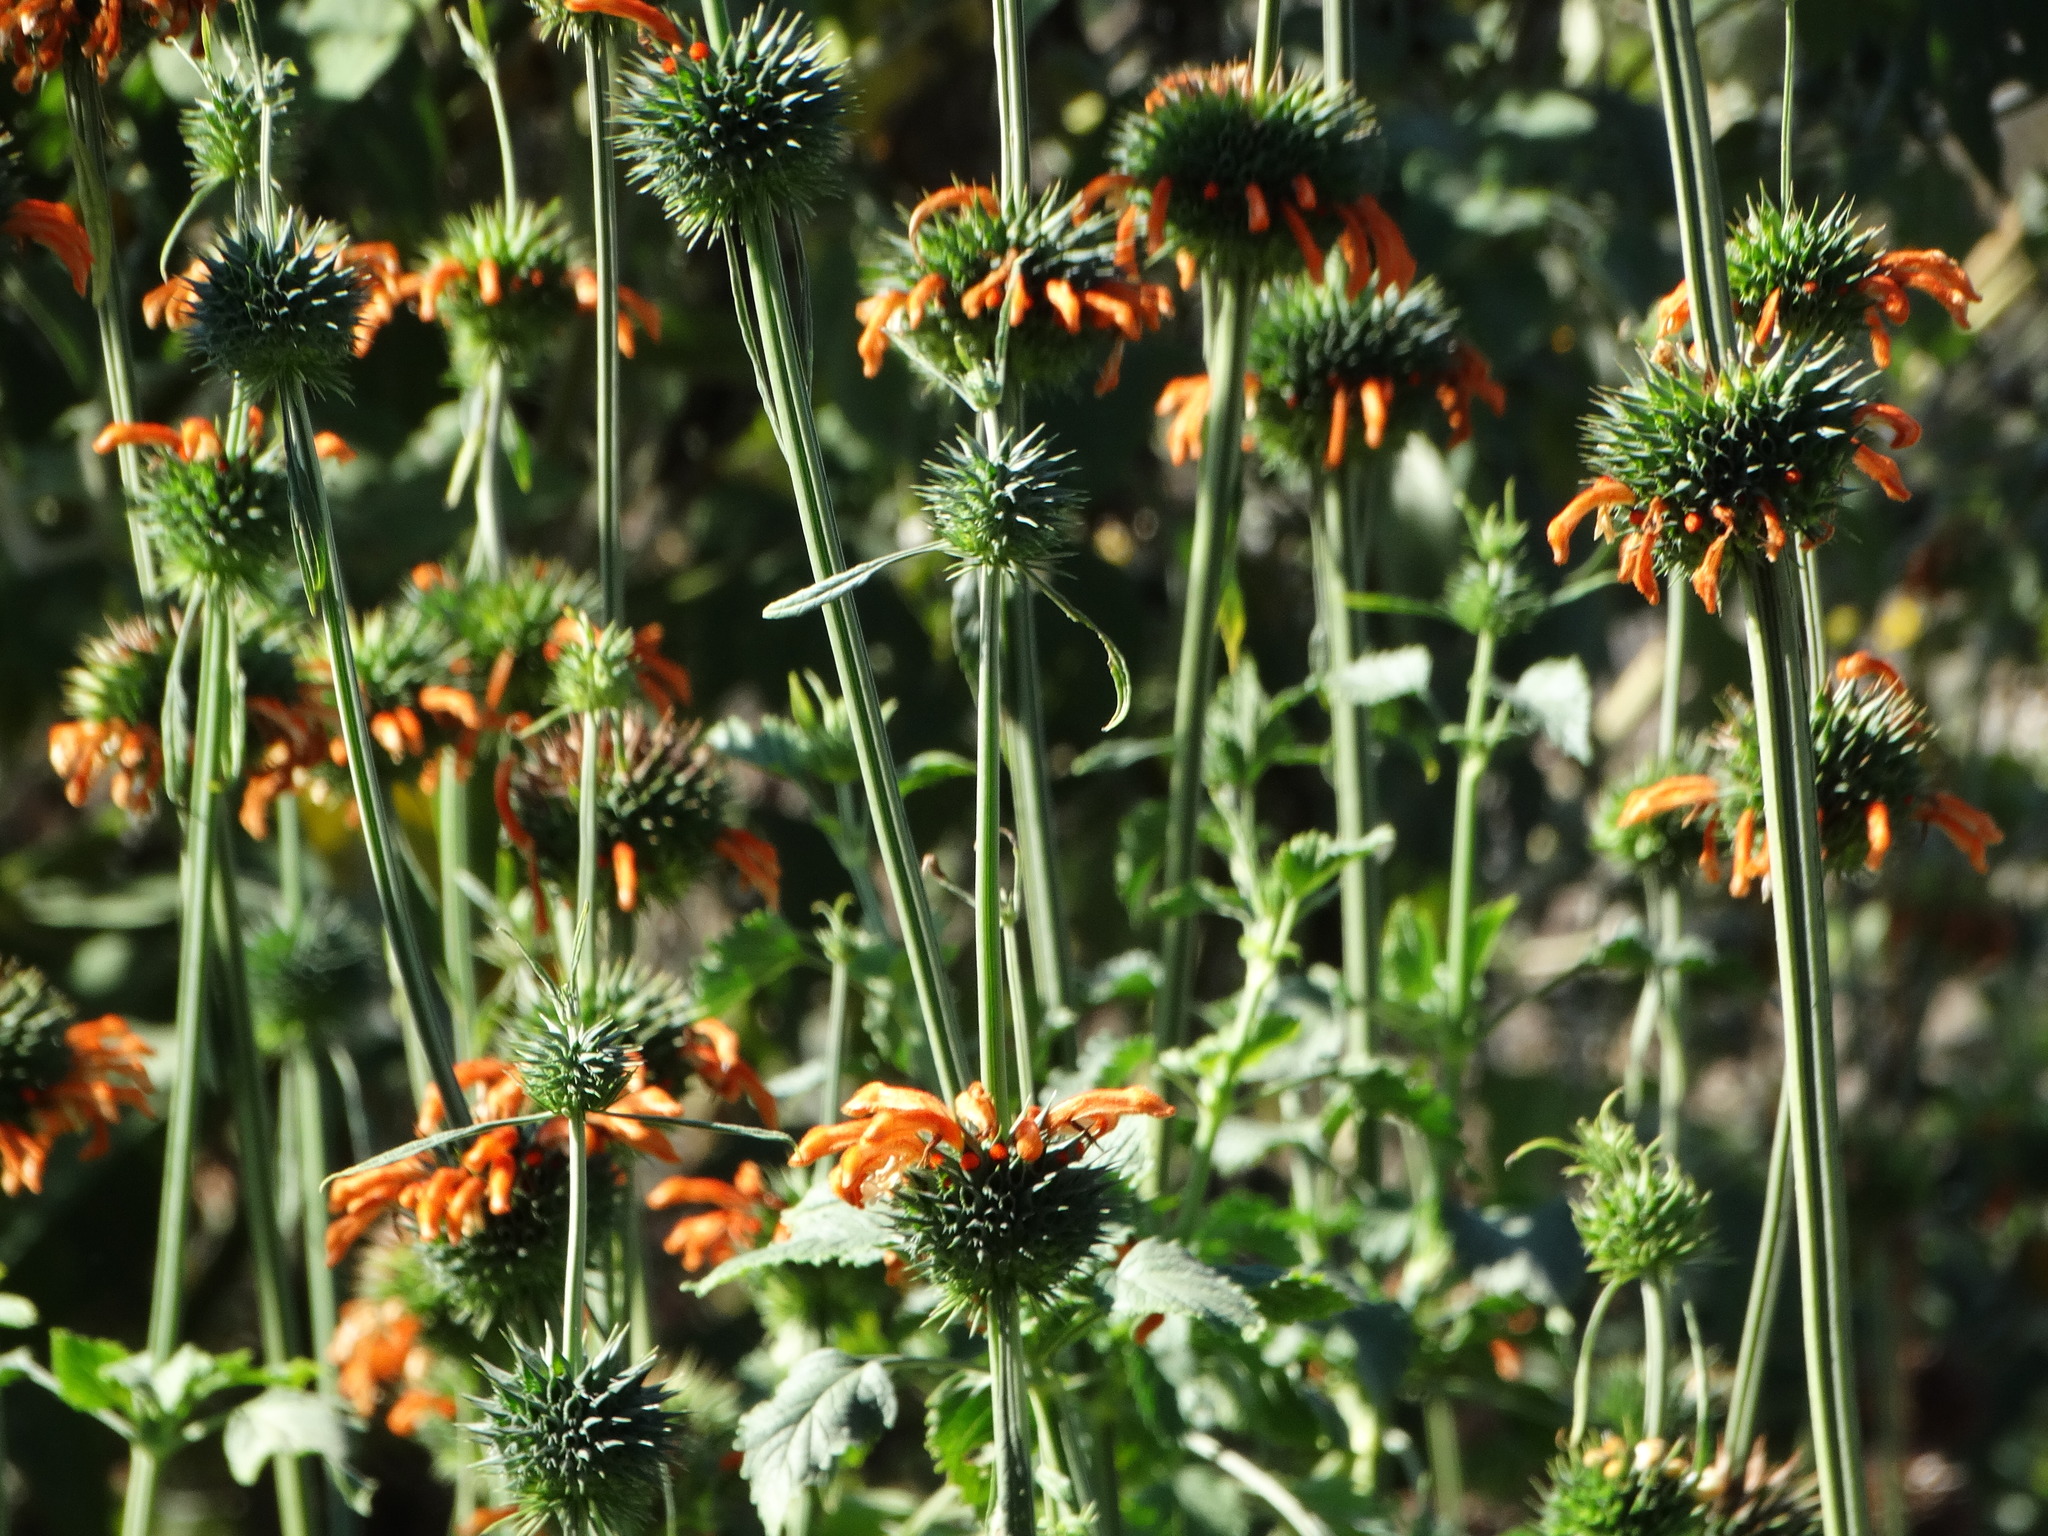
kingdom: Plantae
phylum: Tracheophyta
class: Magnoliopsida
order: Lamiales
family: Lamiaceae
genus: Leonotis
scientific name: Leonotis nepetifolia
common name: Christmas candlestick
